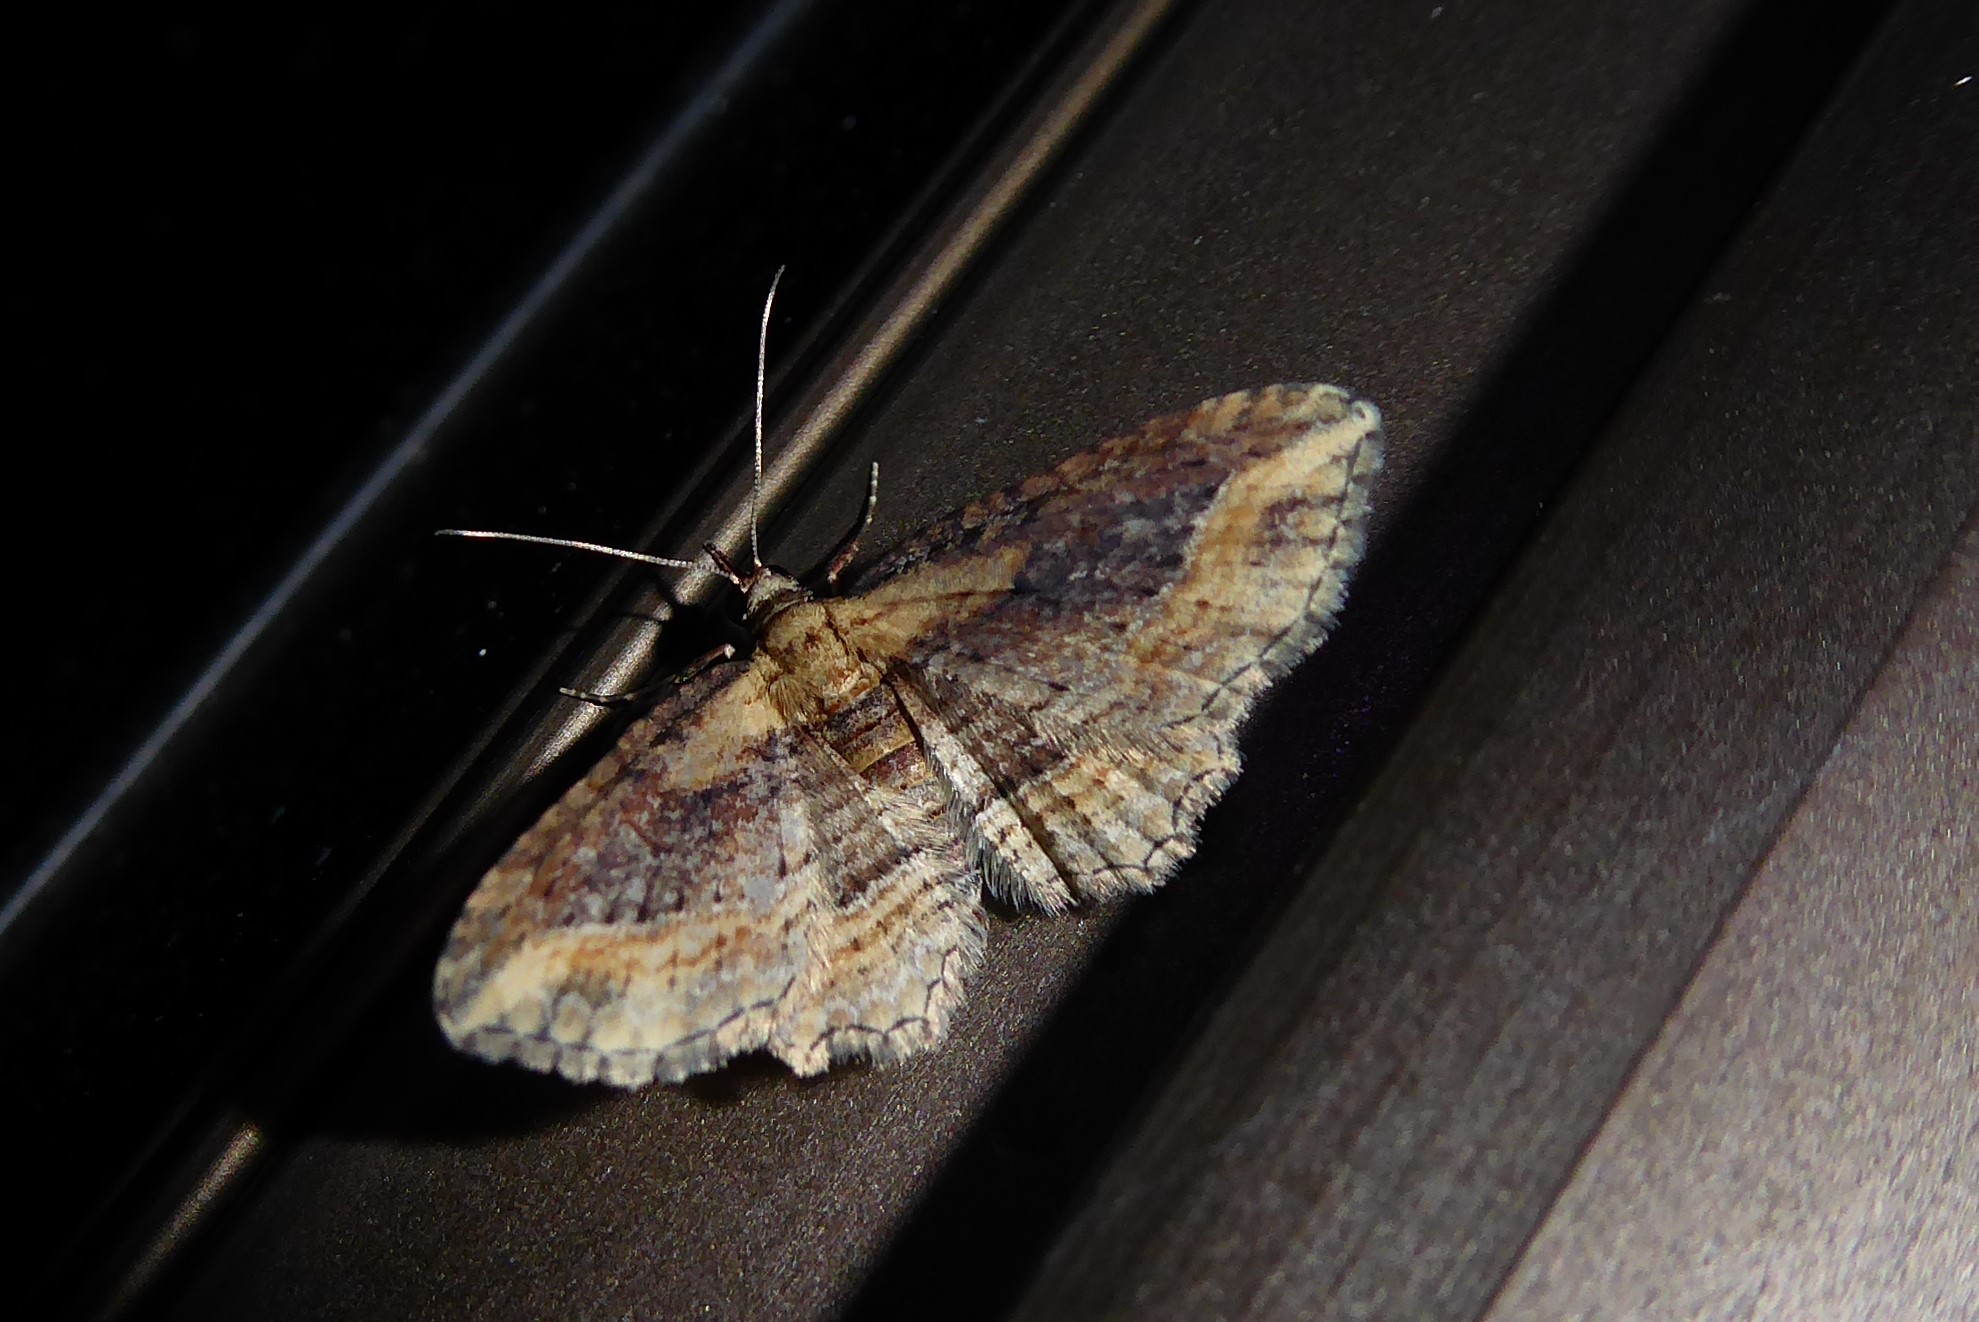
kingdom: Animalia
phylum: Arthropoda
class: Insecta
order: Lepidoptera
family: Geometridae
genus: Chloroclystis
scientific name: Chloroclystis filata
